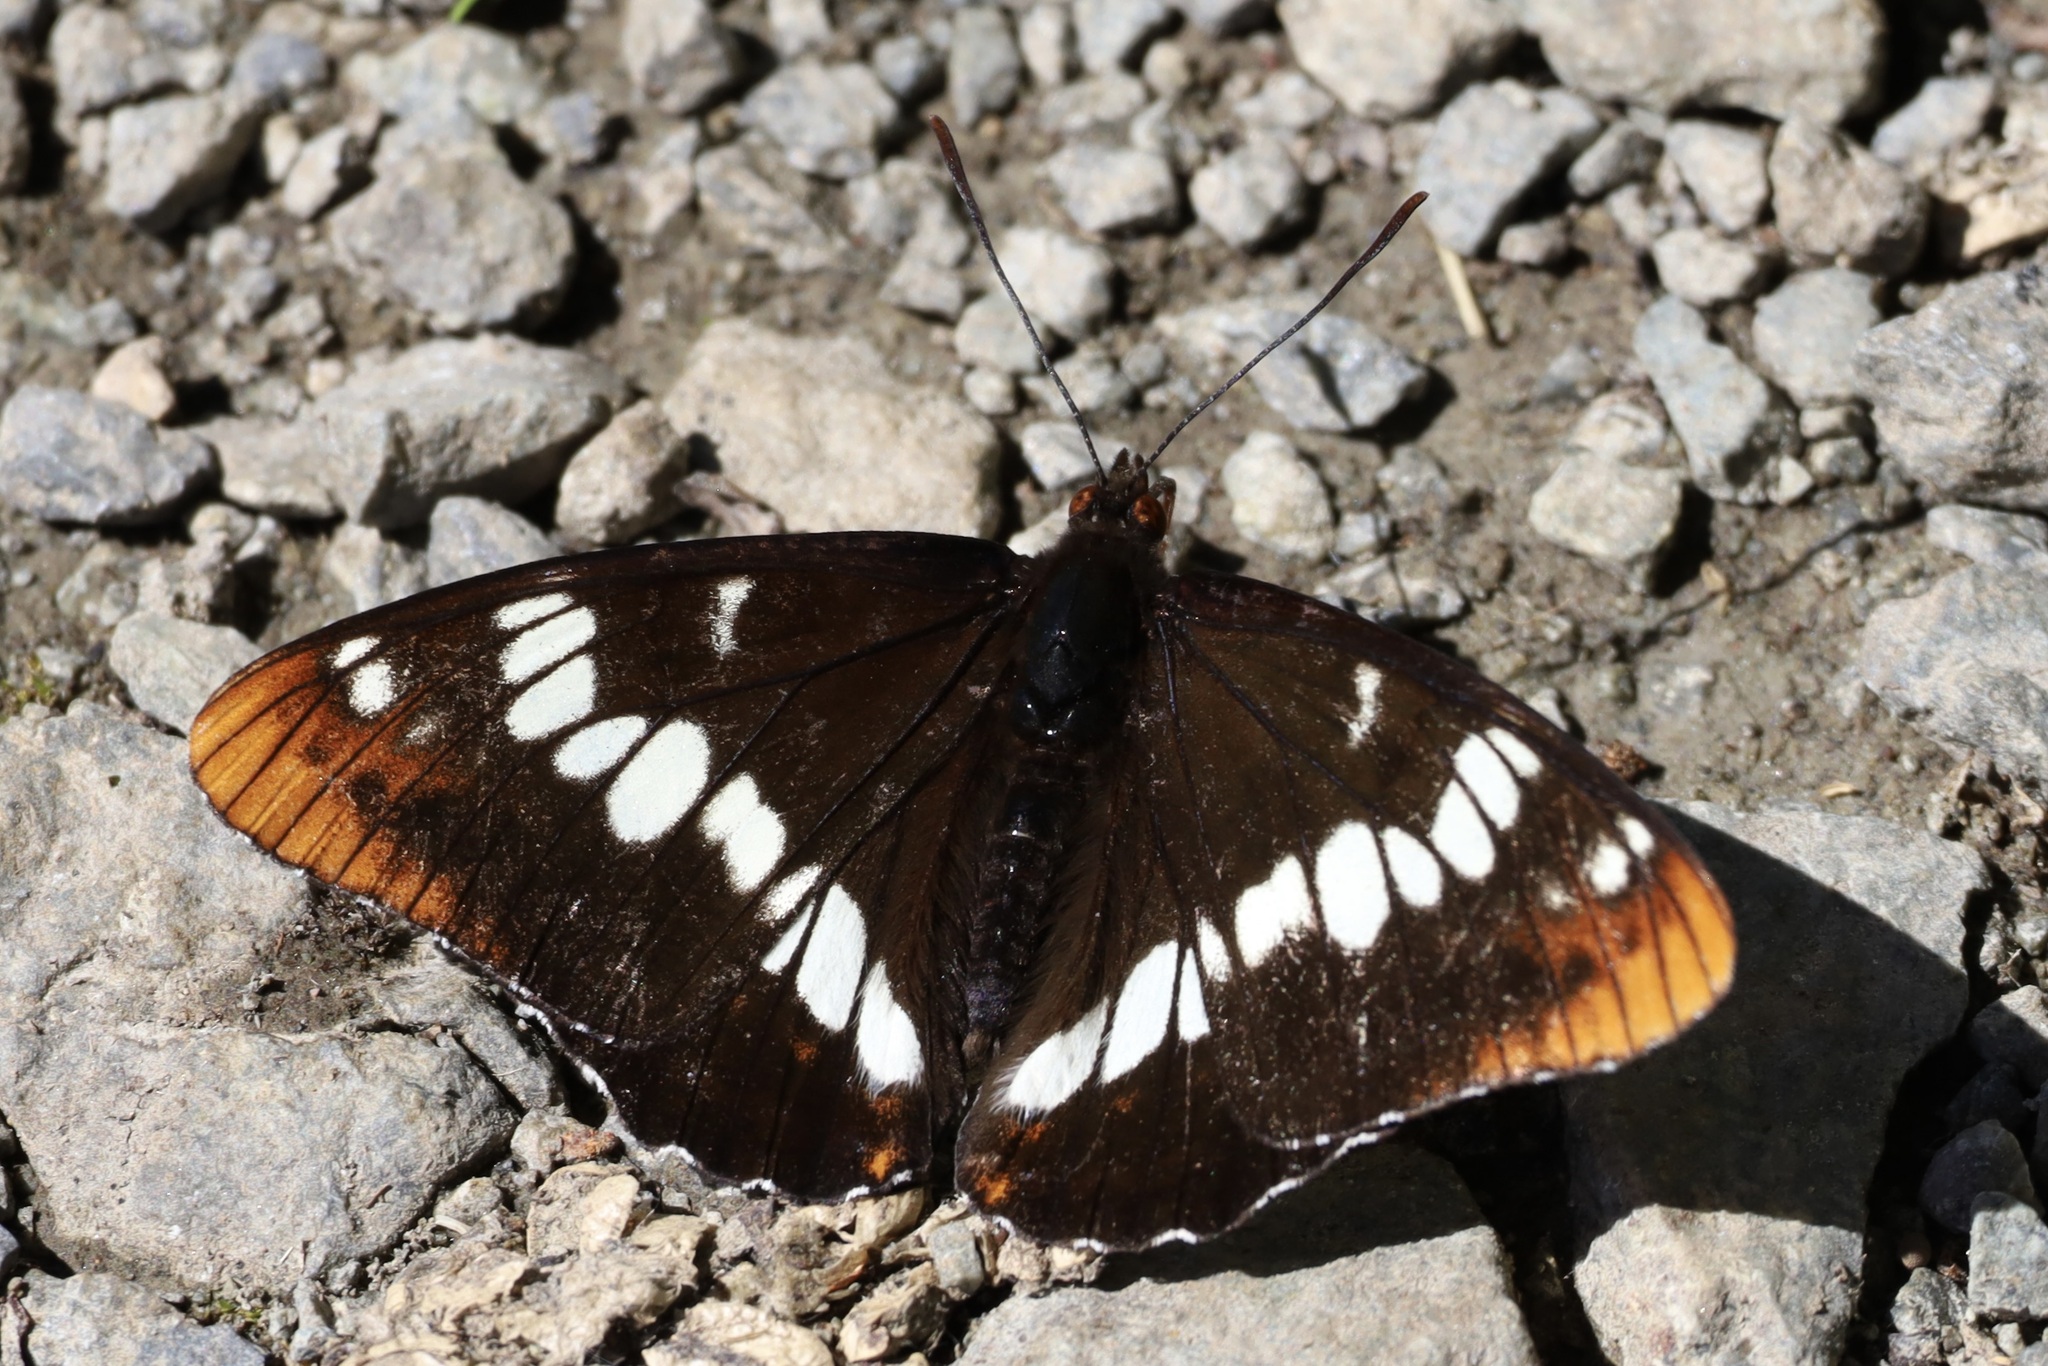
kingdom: Animalia
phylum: Arthropoda
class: Insecta
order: Lepidoptera
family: Nymphalidae
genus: Limenitis
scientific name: Limenitis lorquini
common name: Lorquin's admiral
